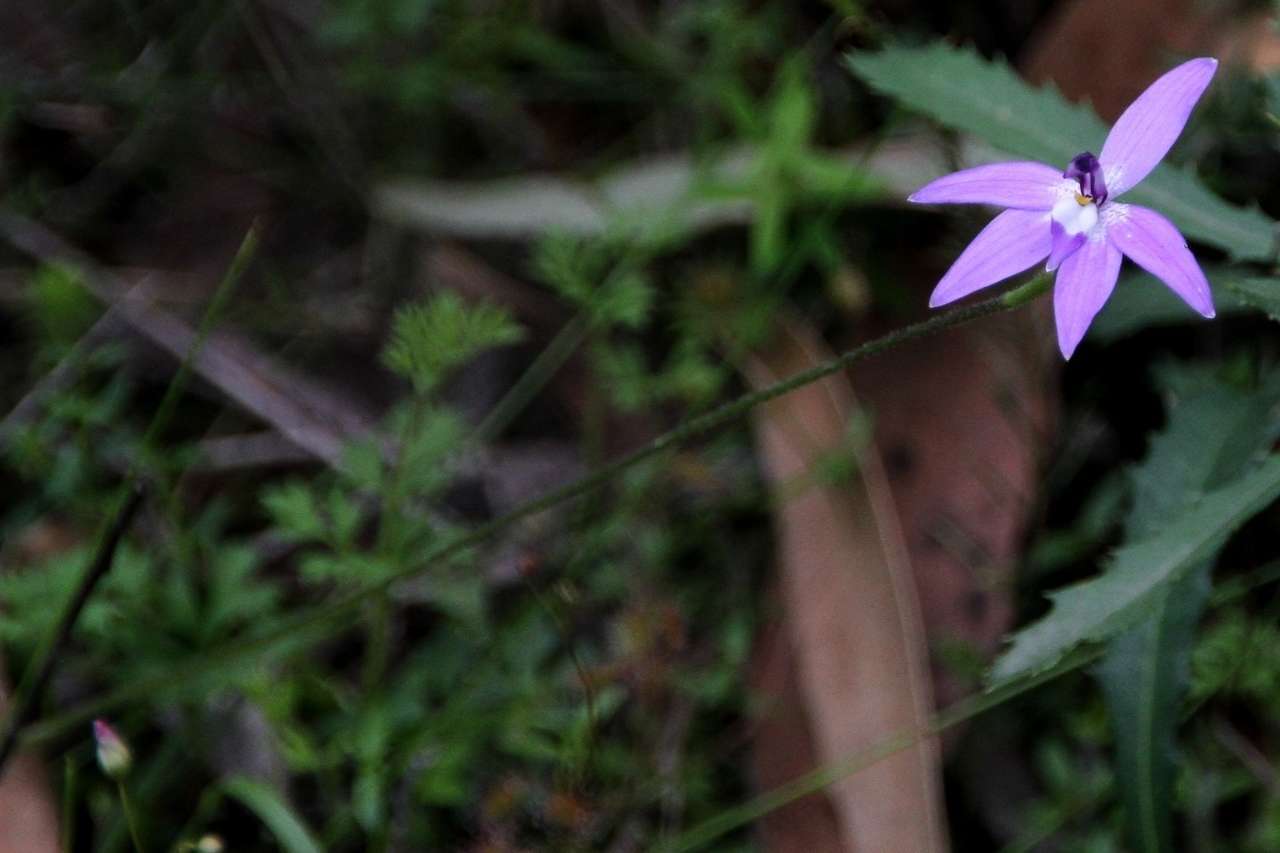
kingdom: Plantae
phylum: Tracheophyta
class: Liliopsida
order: Asparagales
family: Orchidaceae
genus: Caladenia
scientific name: Caladenia major
